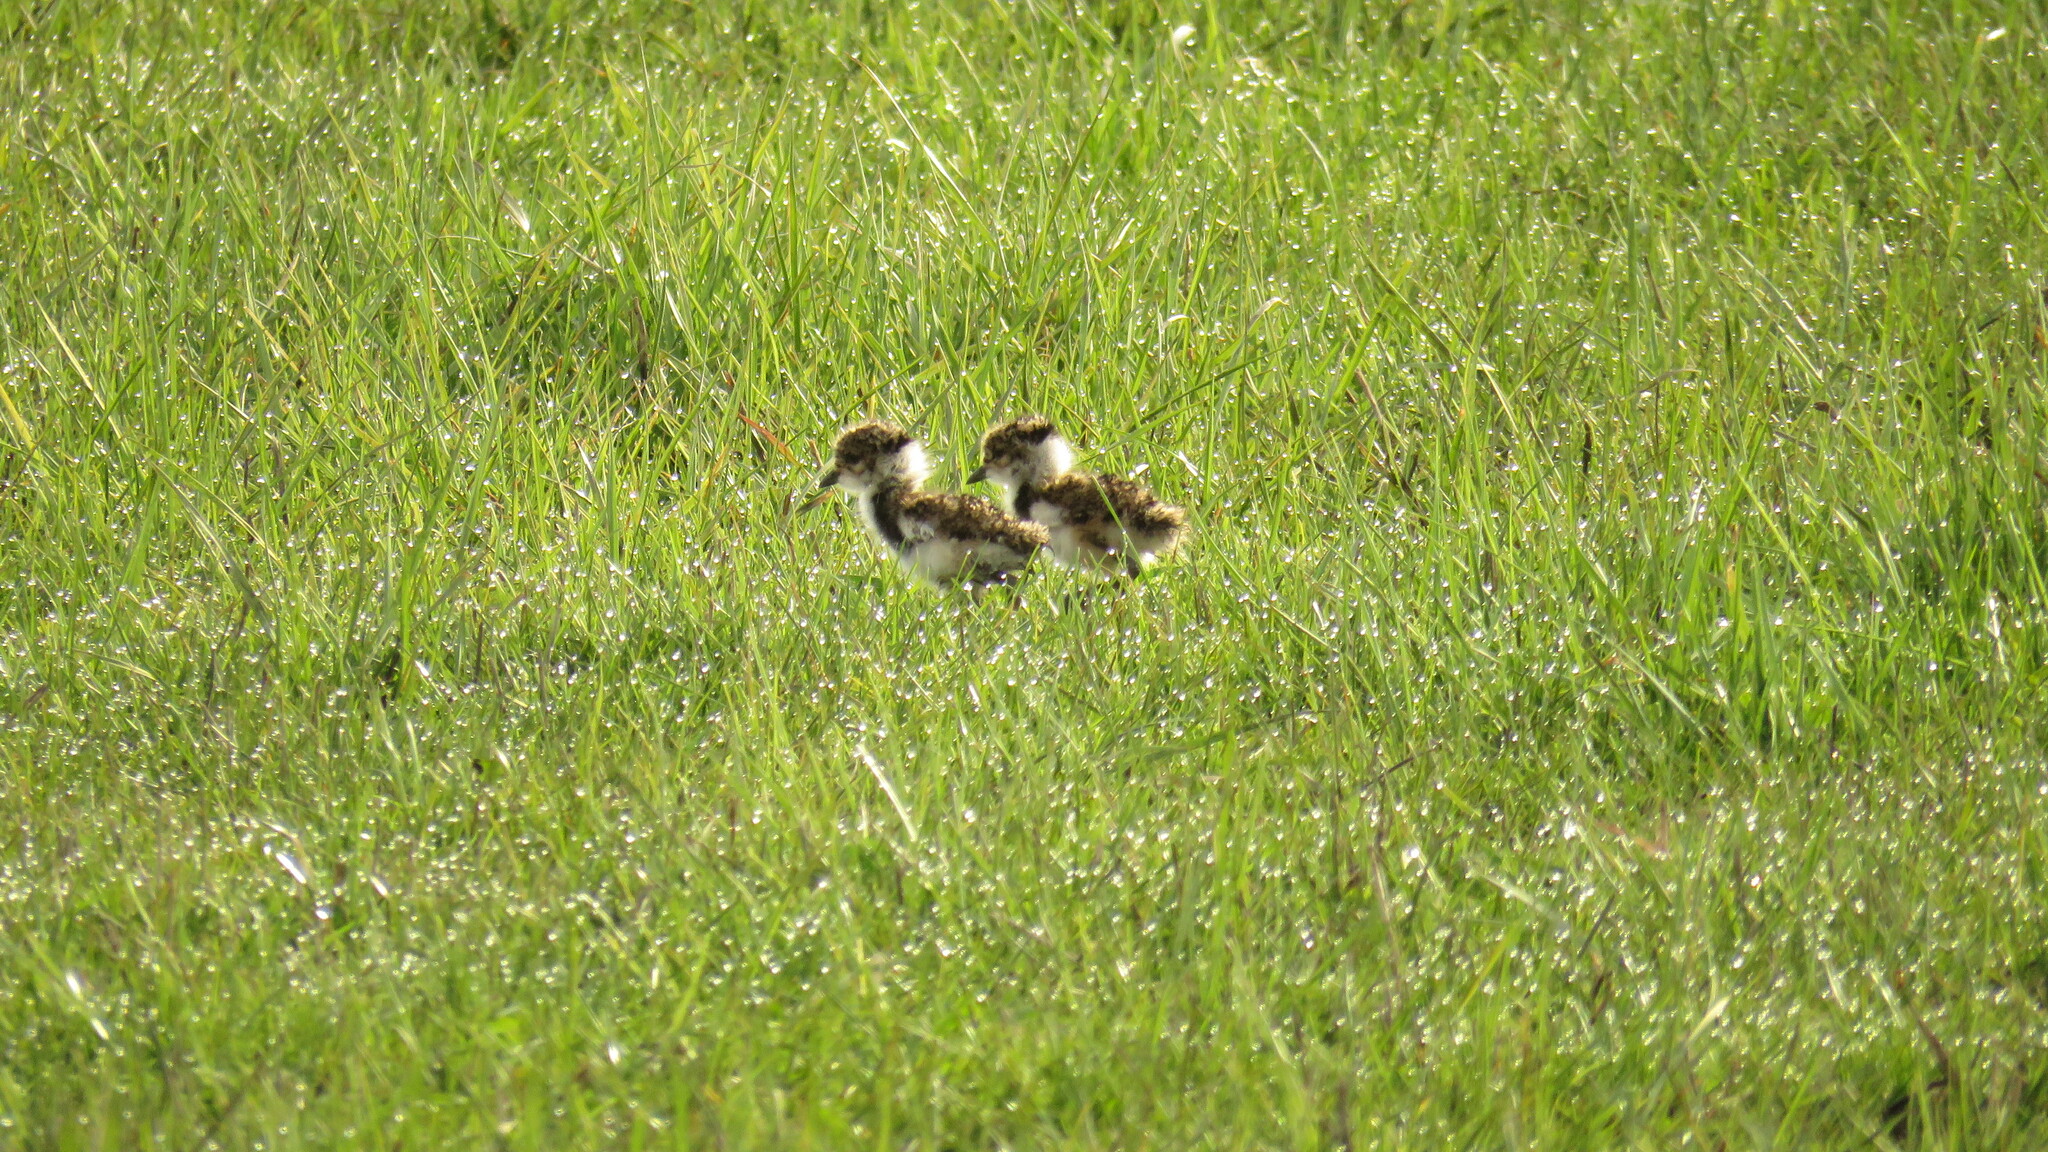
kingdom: Animalia
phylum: Chordata
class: Aves
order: Charadriiformes
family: Charadriidae
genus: Vanellus
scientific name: Vanellus chilensis
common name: Southern lapwing
